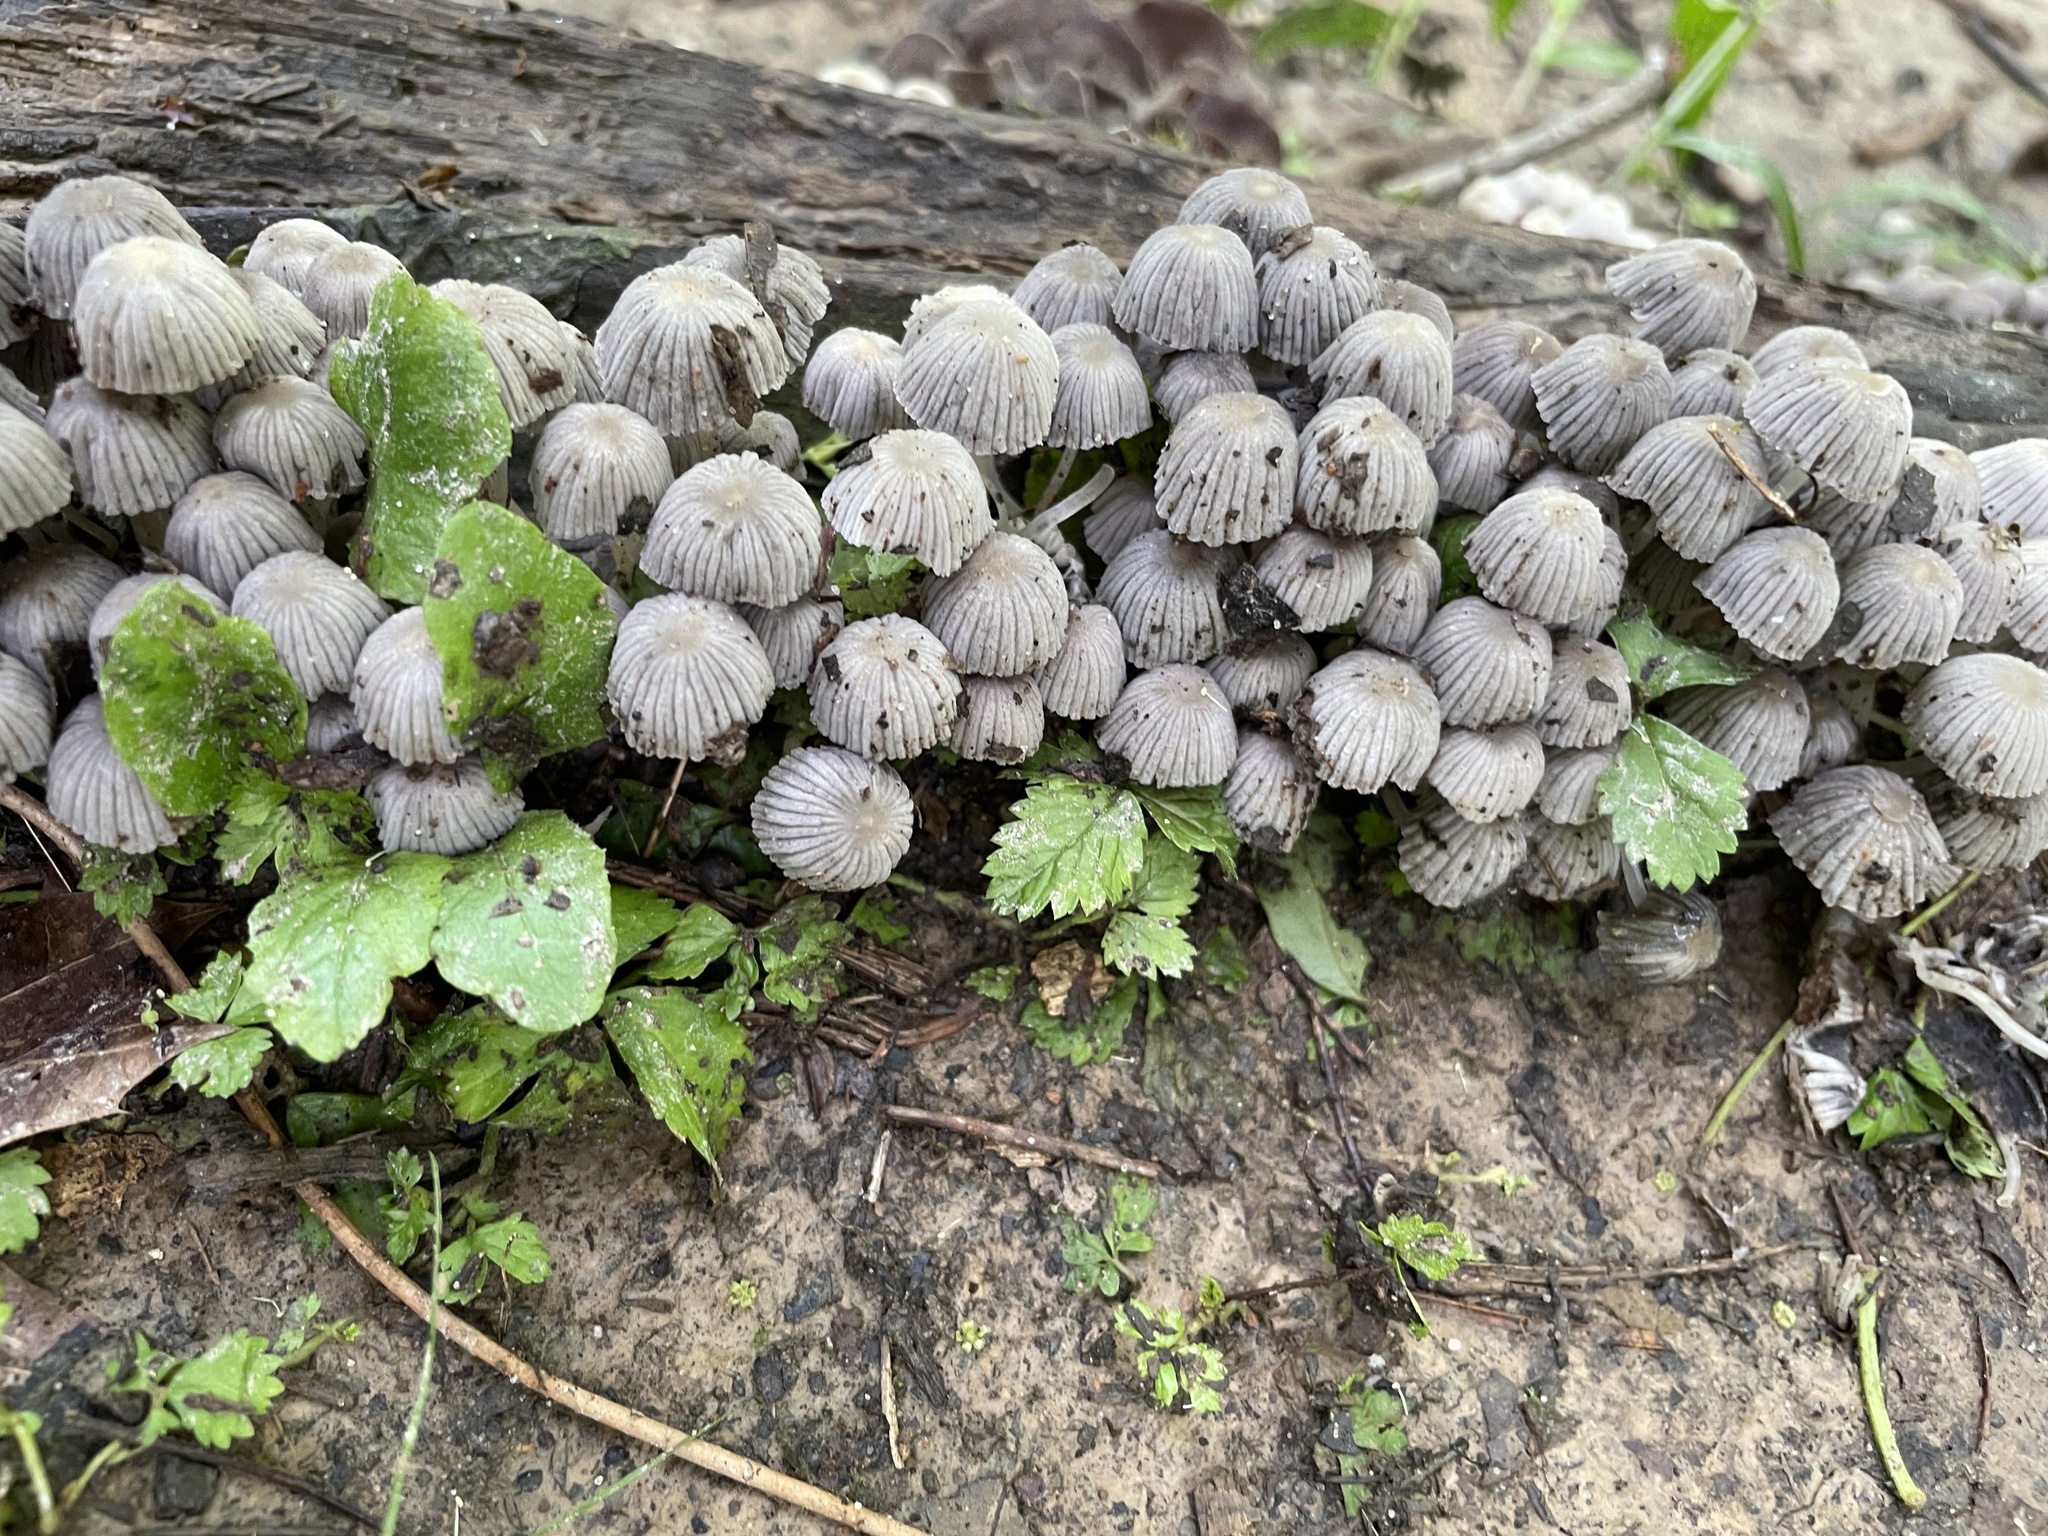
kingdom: Fungi
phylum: Basidiomycota
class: Agaricomycetes
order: Agaricales
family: Psathyrellaceae
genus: Coprinellus
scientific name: Coprinellus disseminatus
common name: Fairies' bonnets
